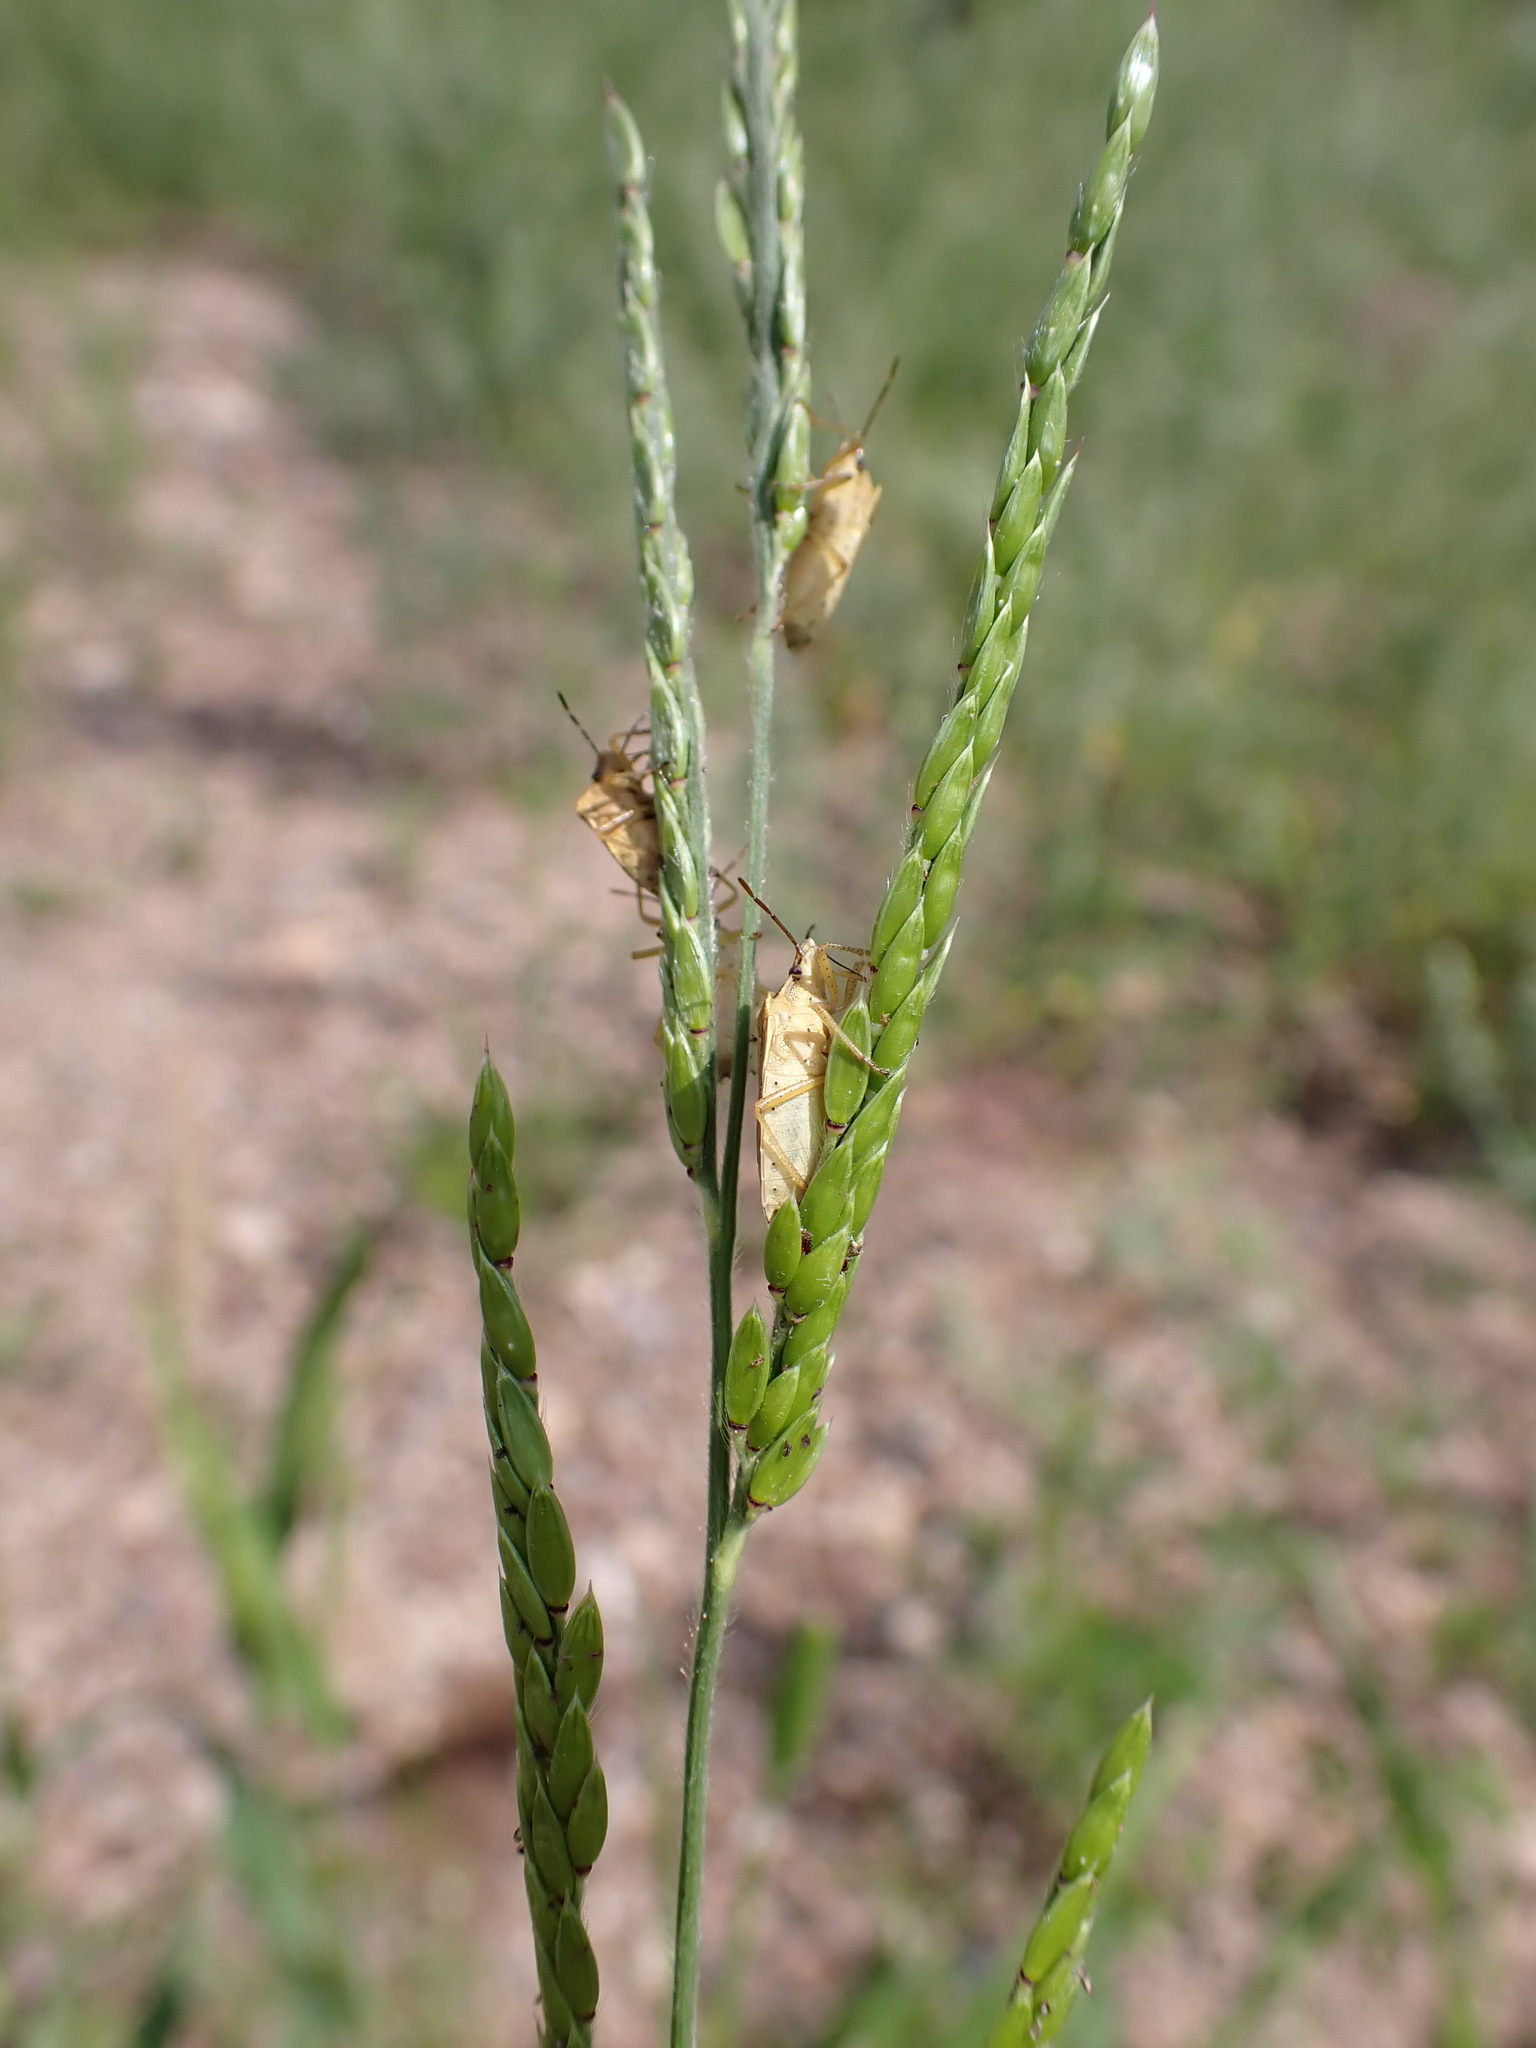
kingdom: Plantae
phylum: Tracheophyta
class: Liliopsida
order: Poales
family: Poaceae
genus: Eriochloa
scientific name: Eriochloa acuminata
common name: Southwestern cup grass
